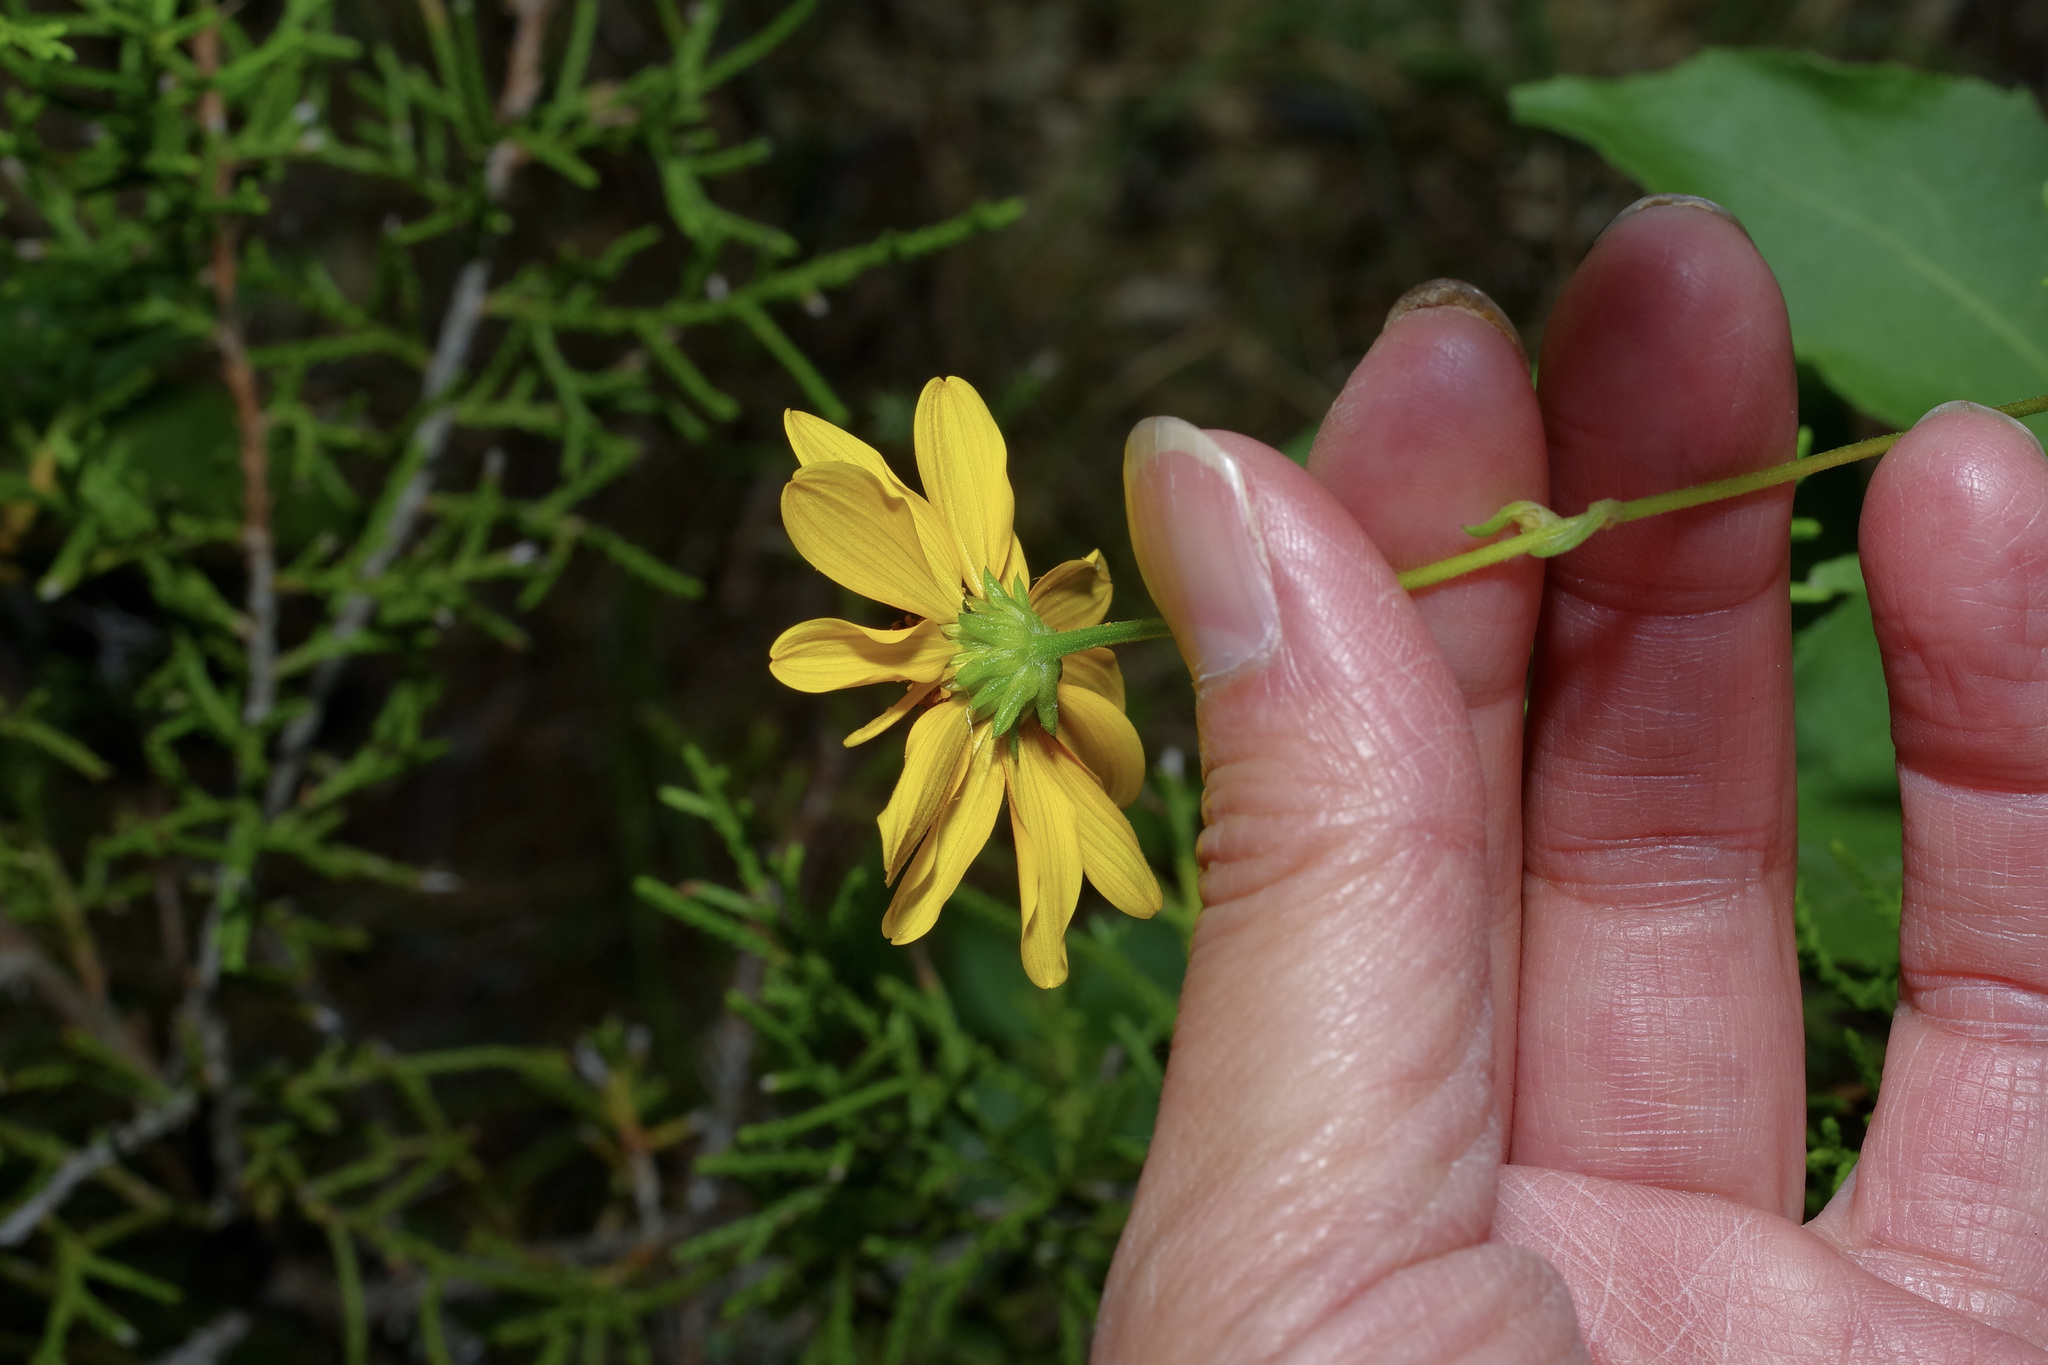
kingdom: Plantae
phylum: Tracheophyta
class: Magnoliopsida
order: Asterales
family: Asteraceae
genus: Viguiera
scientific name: Viguiera dentata
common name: Toothleaf
